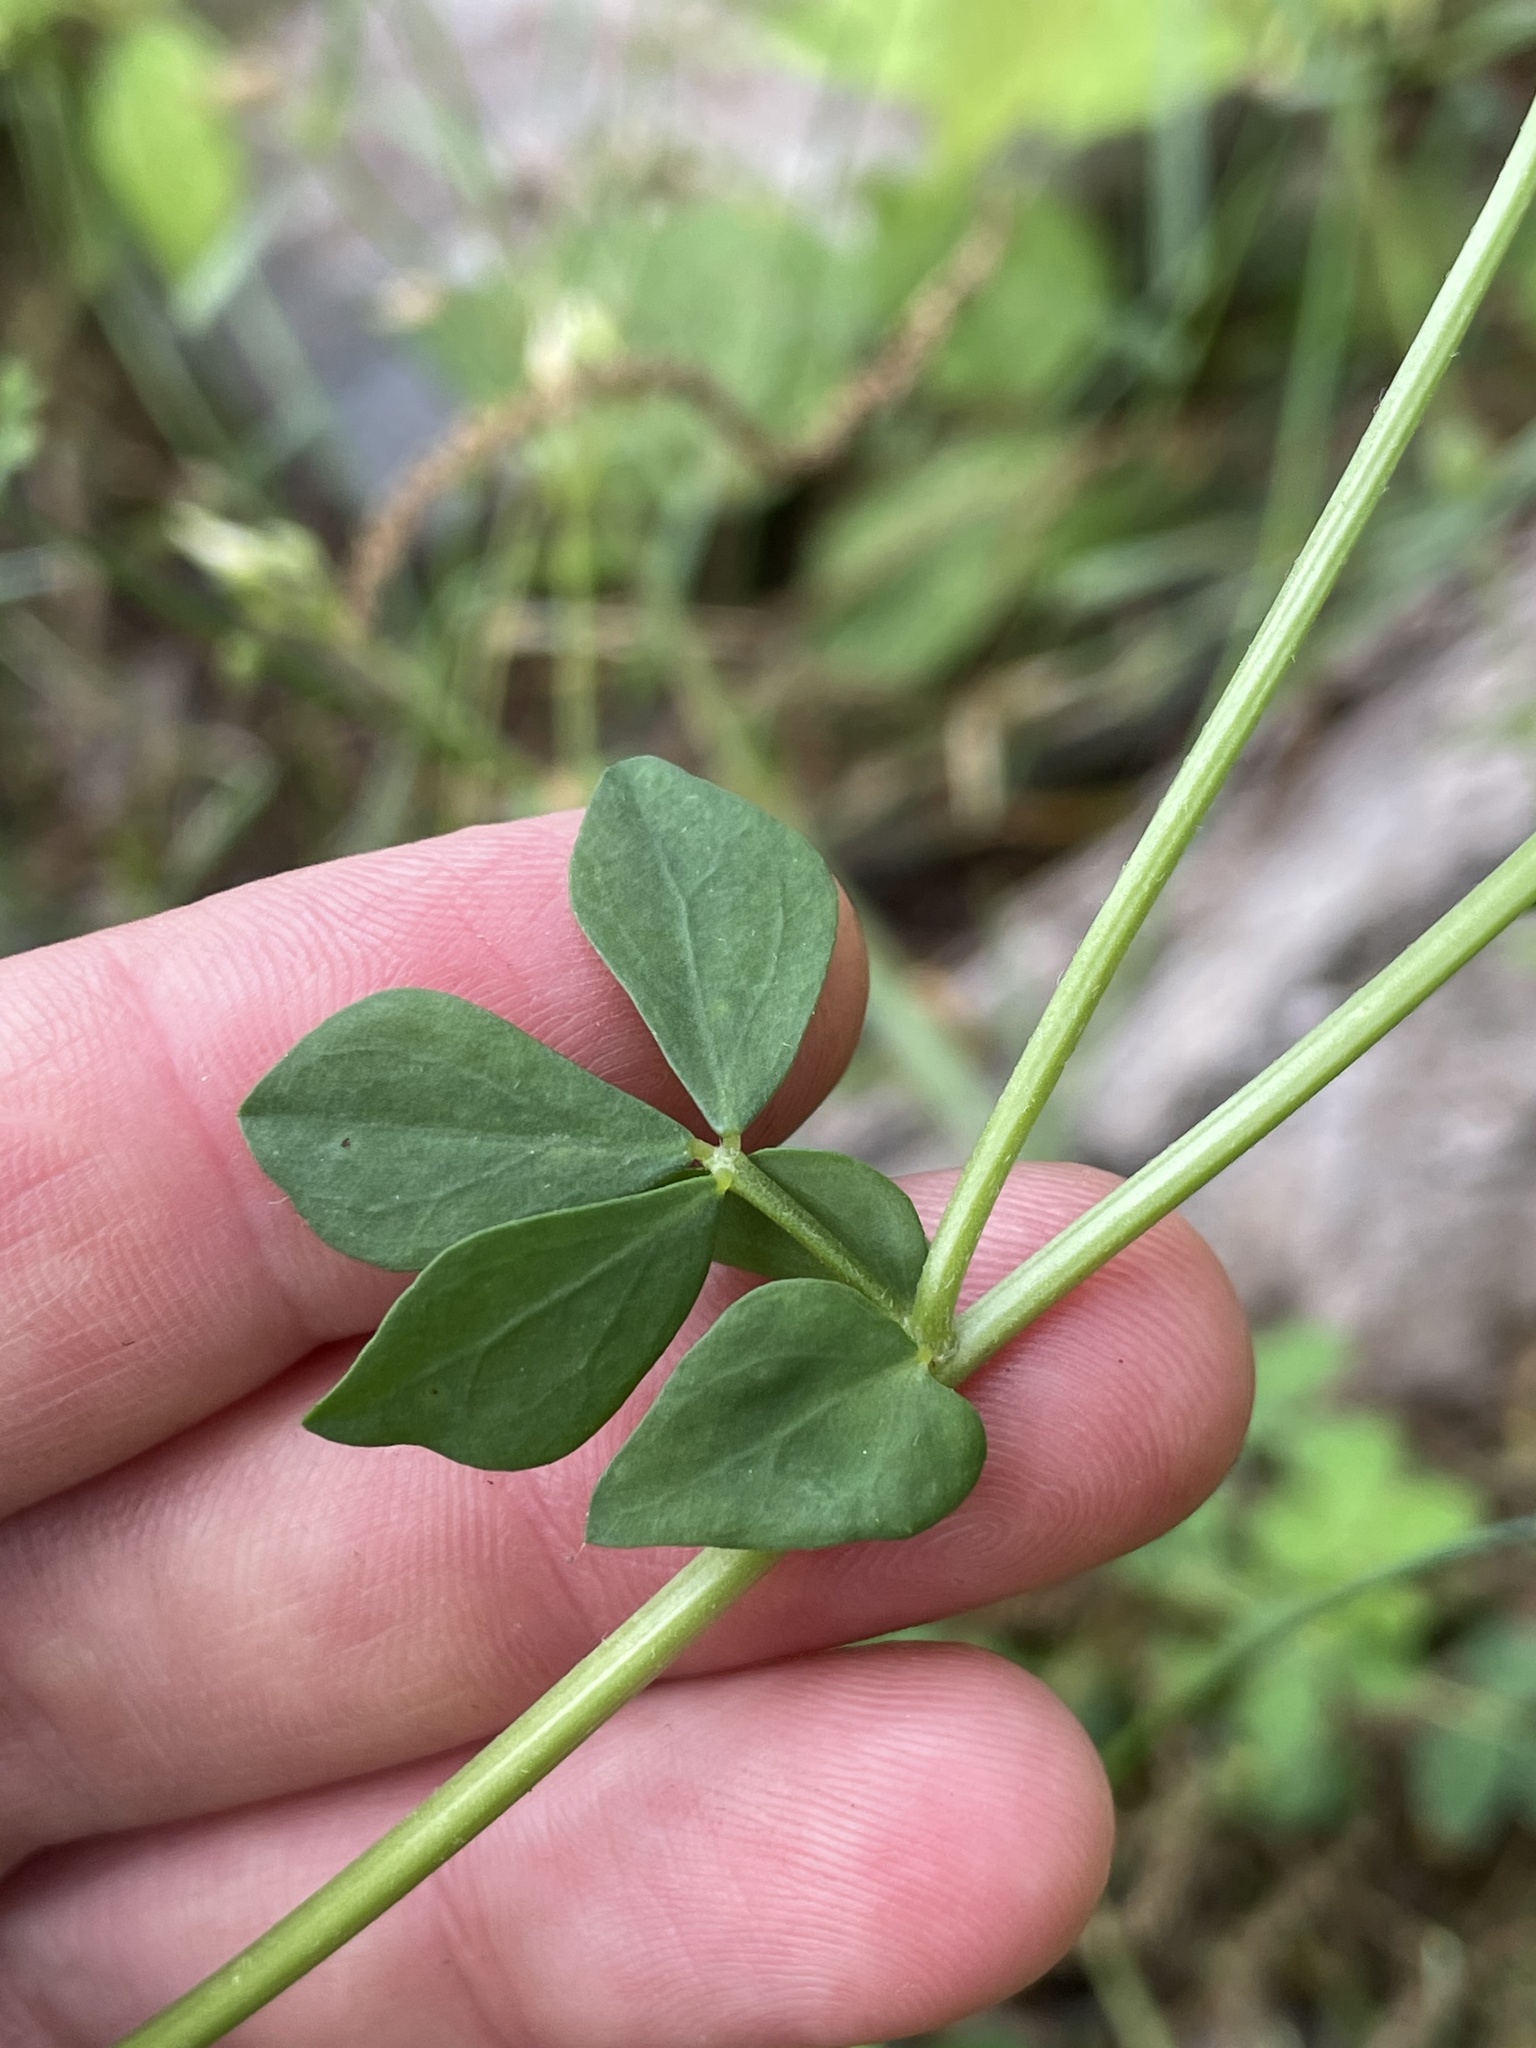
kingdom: Plantae
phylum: Tracheophyta
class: Magnoliopsida
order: Fabales
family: Fabaceae
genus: Lotus
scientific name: Lotus corniculatus
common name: Common bird's-foot-trefoil
